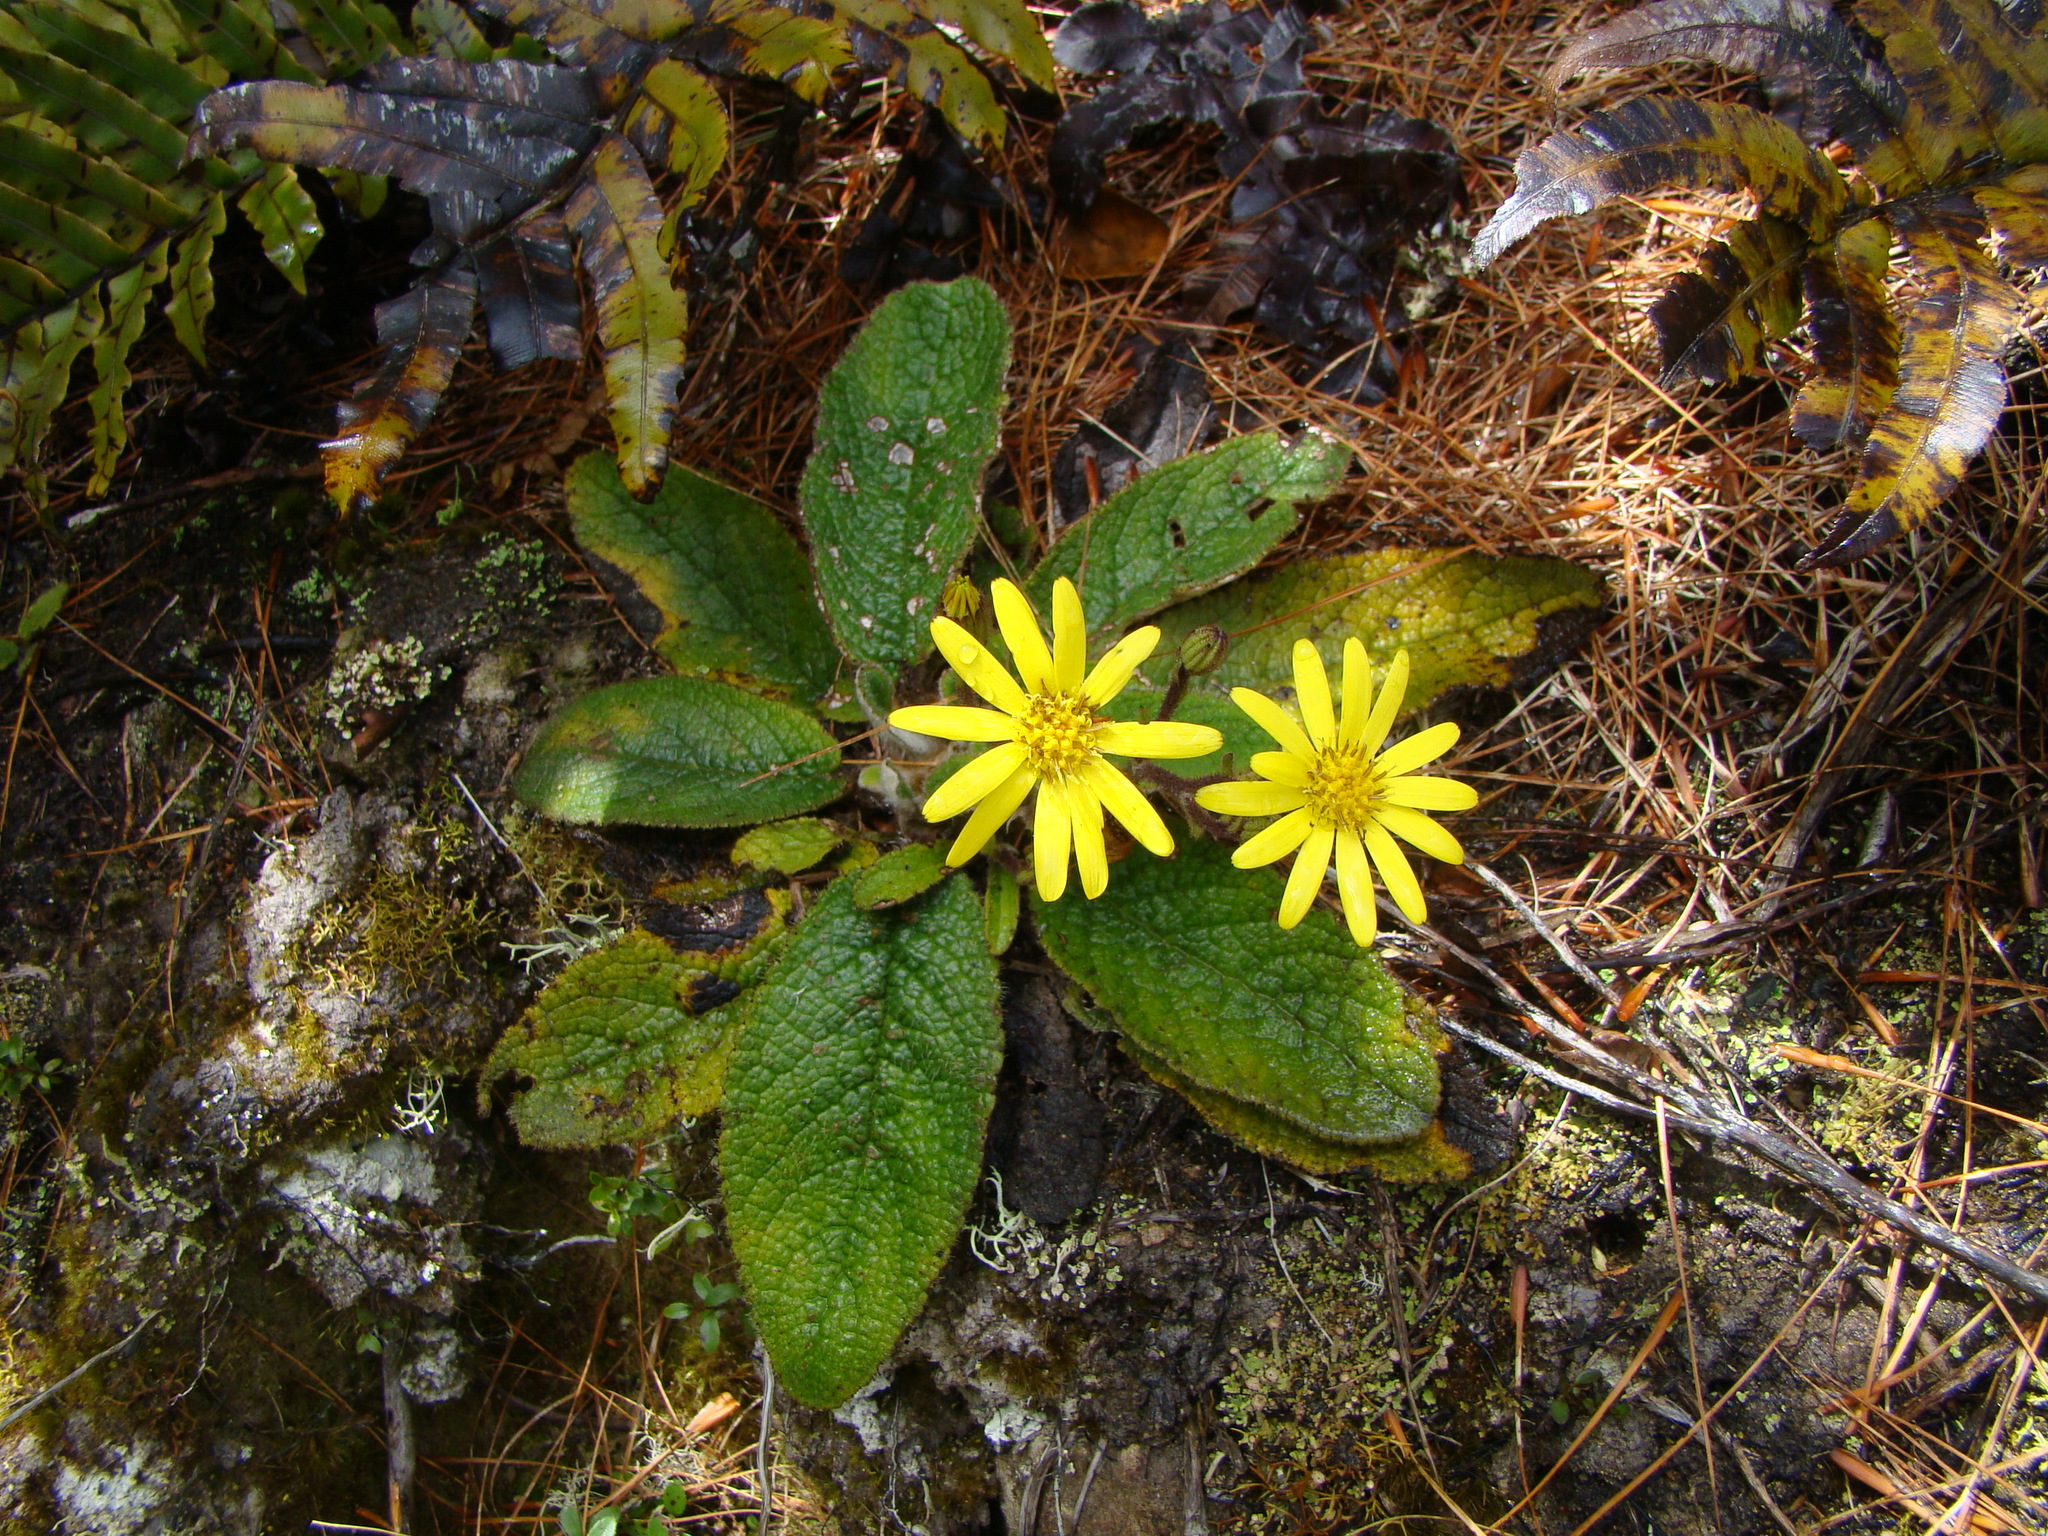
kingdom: Plantae
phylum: Tracheophyta
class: Magnoliopsida
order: Asterales
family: Asteraceae
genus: Brachyglottis
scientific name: Brachyglottis lagopus
